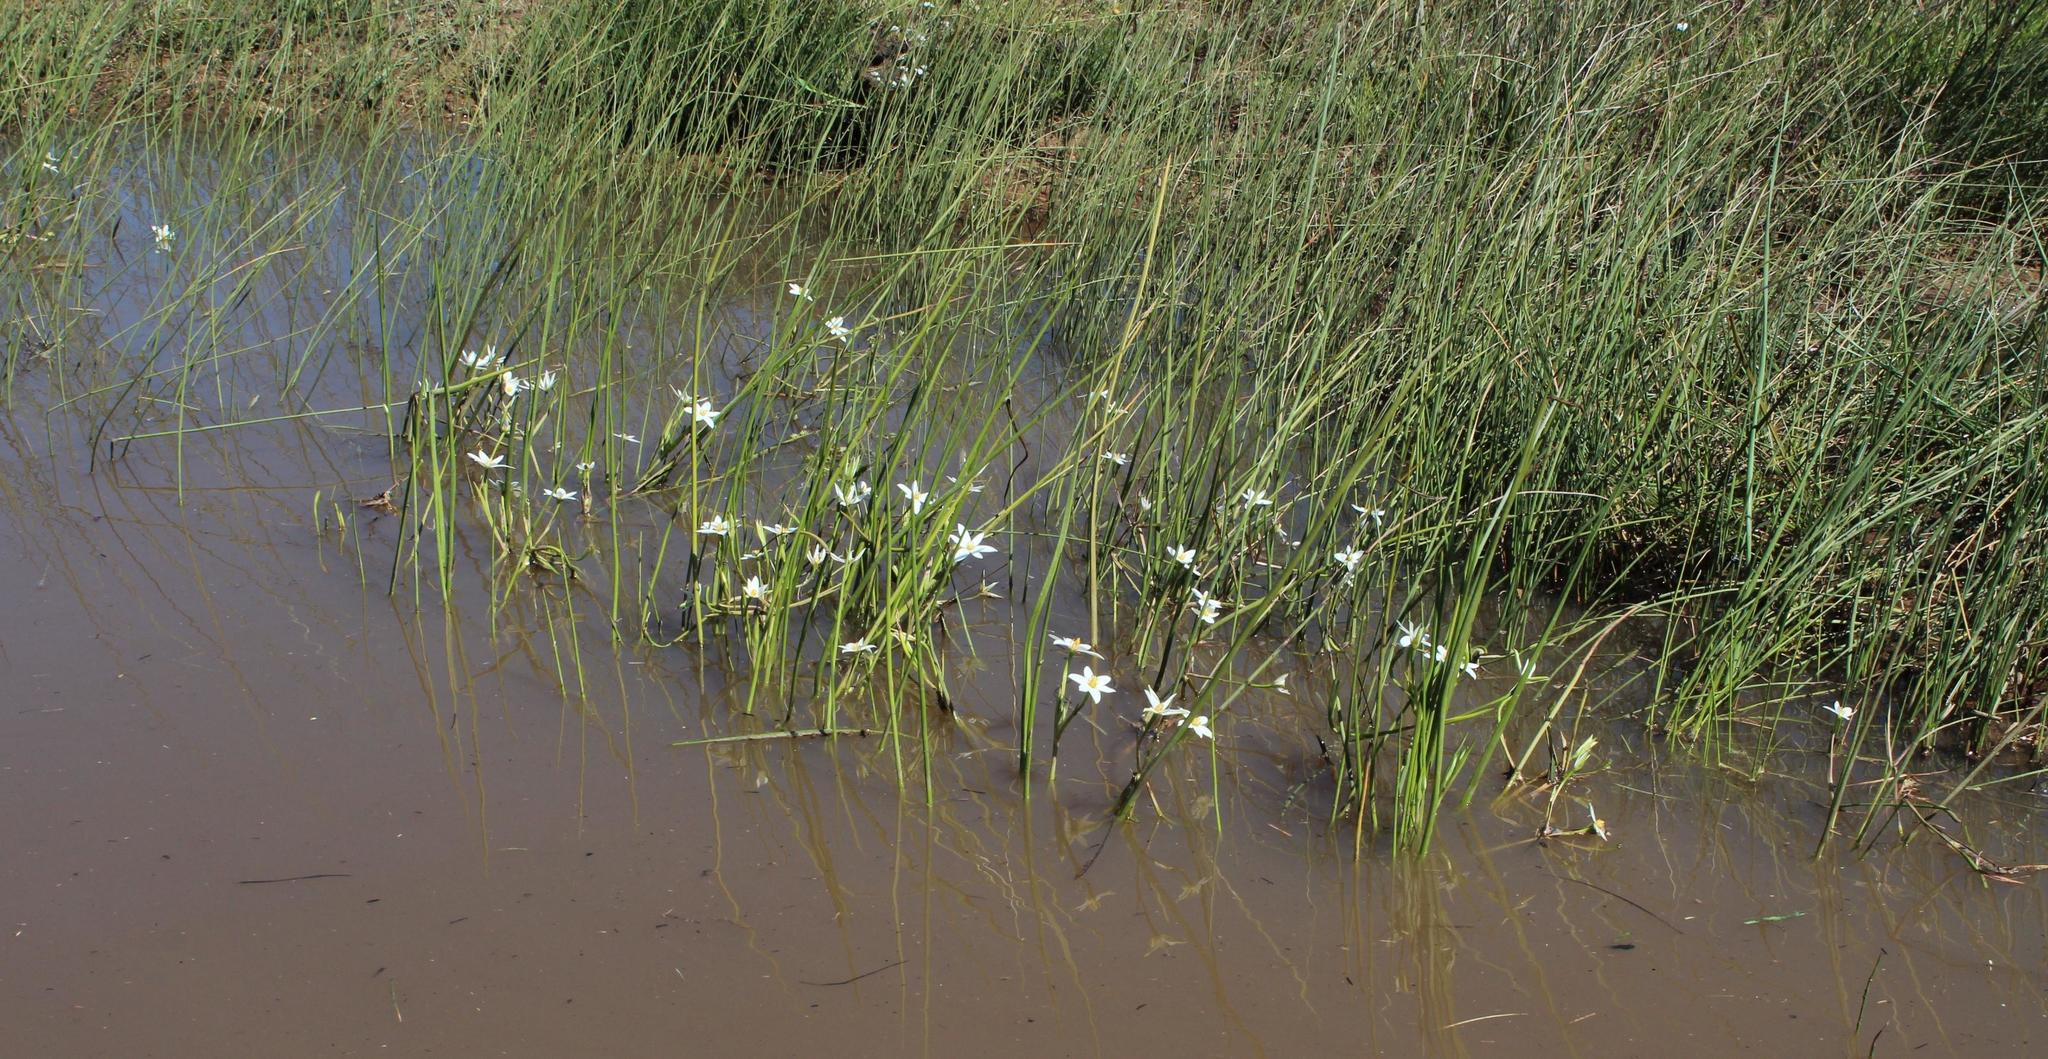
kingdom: Plantae
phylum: Tracheophyta
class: Liliopsida
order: Asparagales
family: Hypoxidaceae
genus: Pauridia
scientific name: Pauridia aquatica
